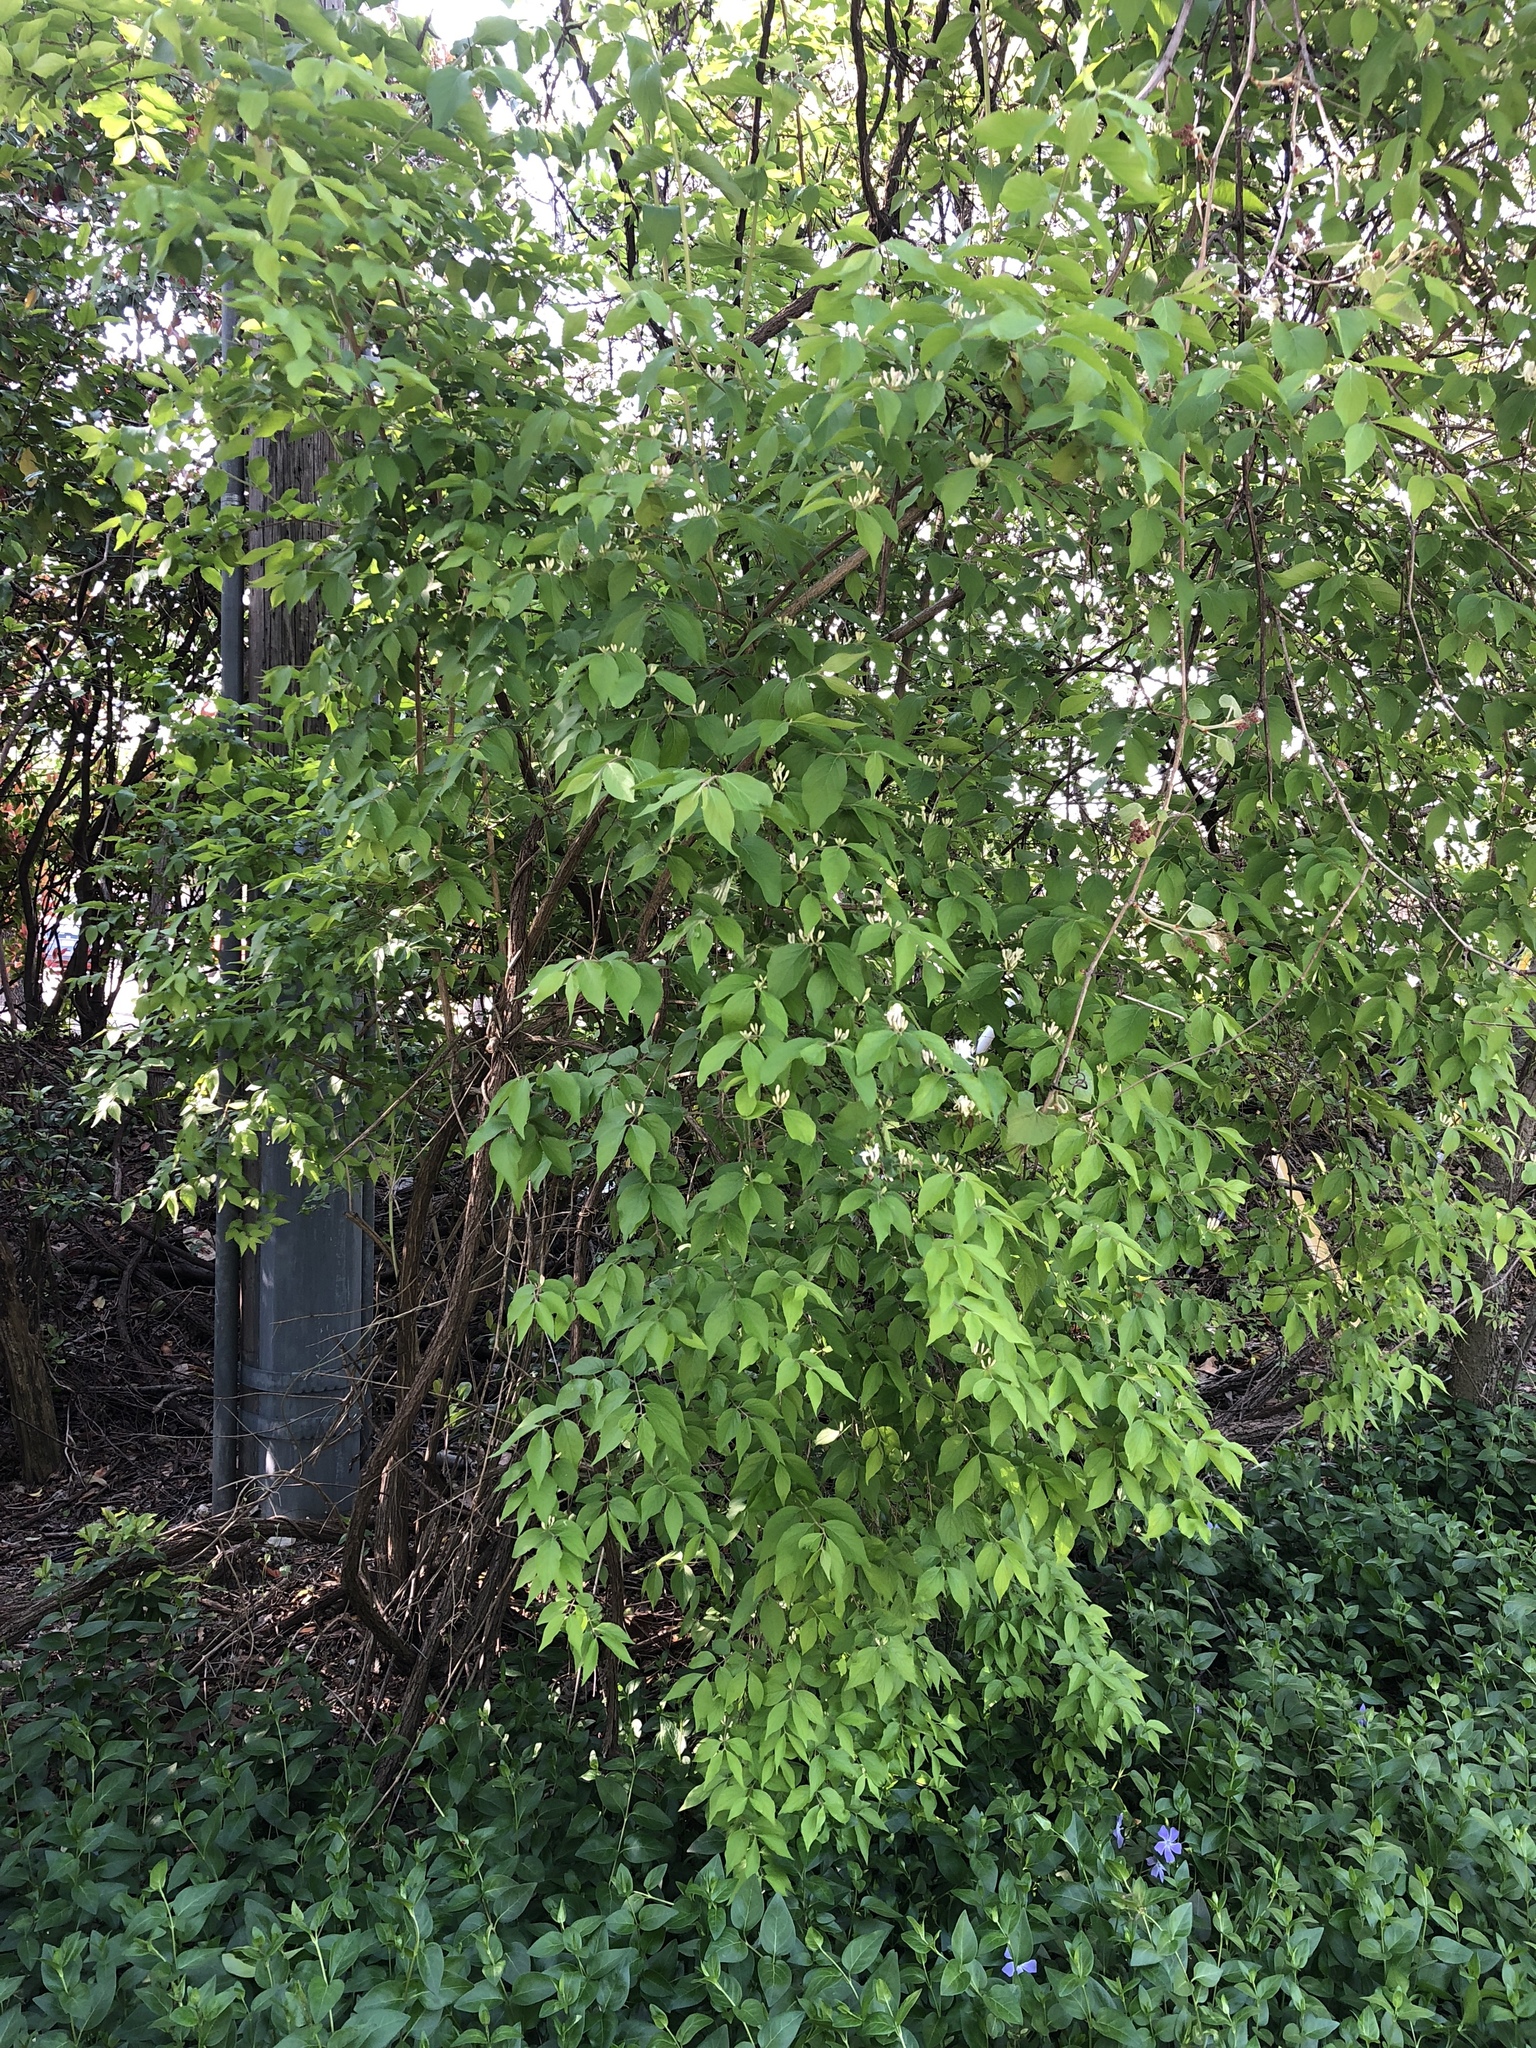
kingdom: Plantae
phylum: Tracheophyta
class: Magnoliopsida
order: Dipsacales
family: Caprifoliaceae
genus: Lonicera
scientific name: Lonicera maackii
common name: Amur honeysuckle
